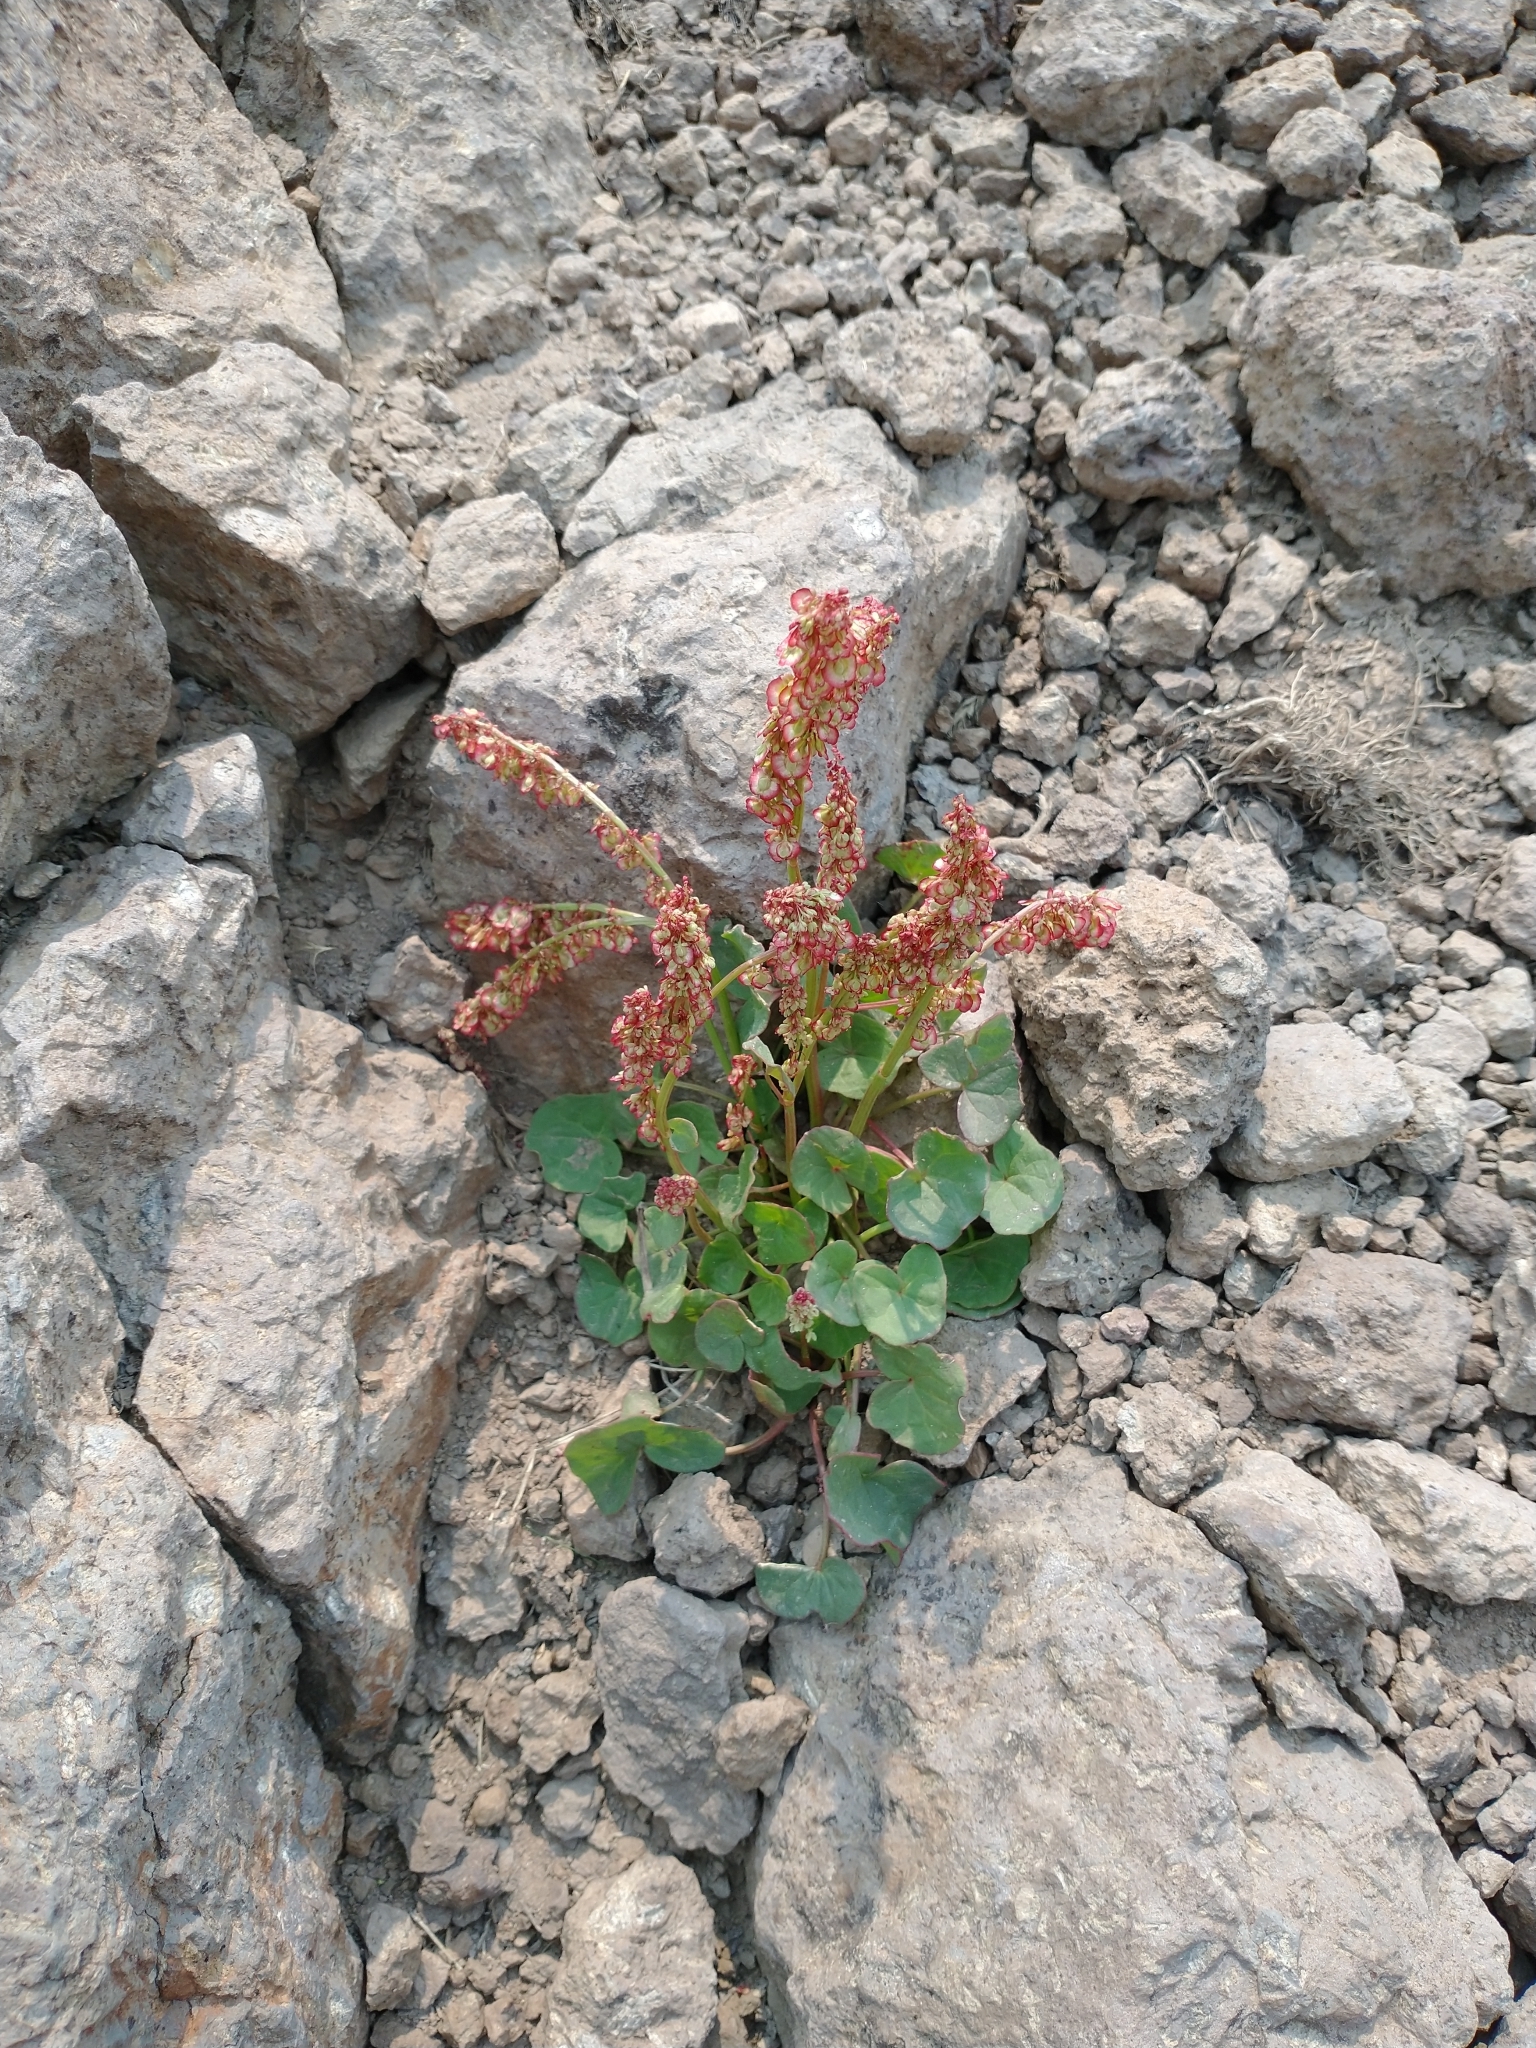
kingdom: Plantae
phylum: Tracheophyta
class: Magnoliopsida
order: Caryophyllales
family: Polygonaceae
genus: Oxyria
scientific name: Oxyria digyna
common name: Alpine mountain-sorrel
